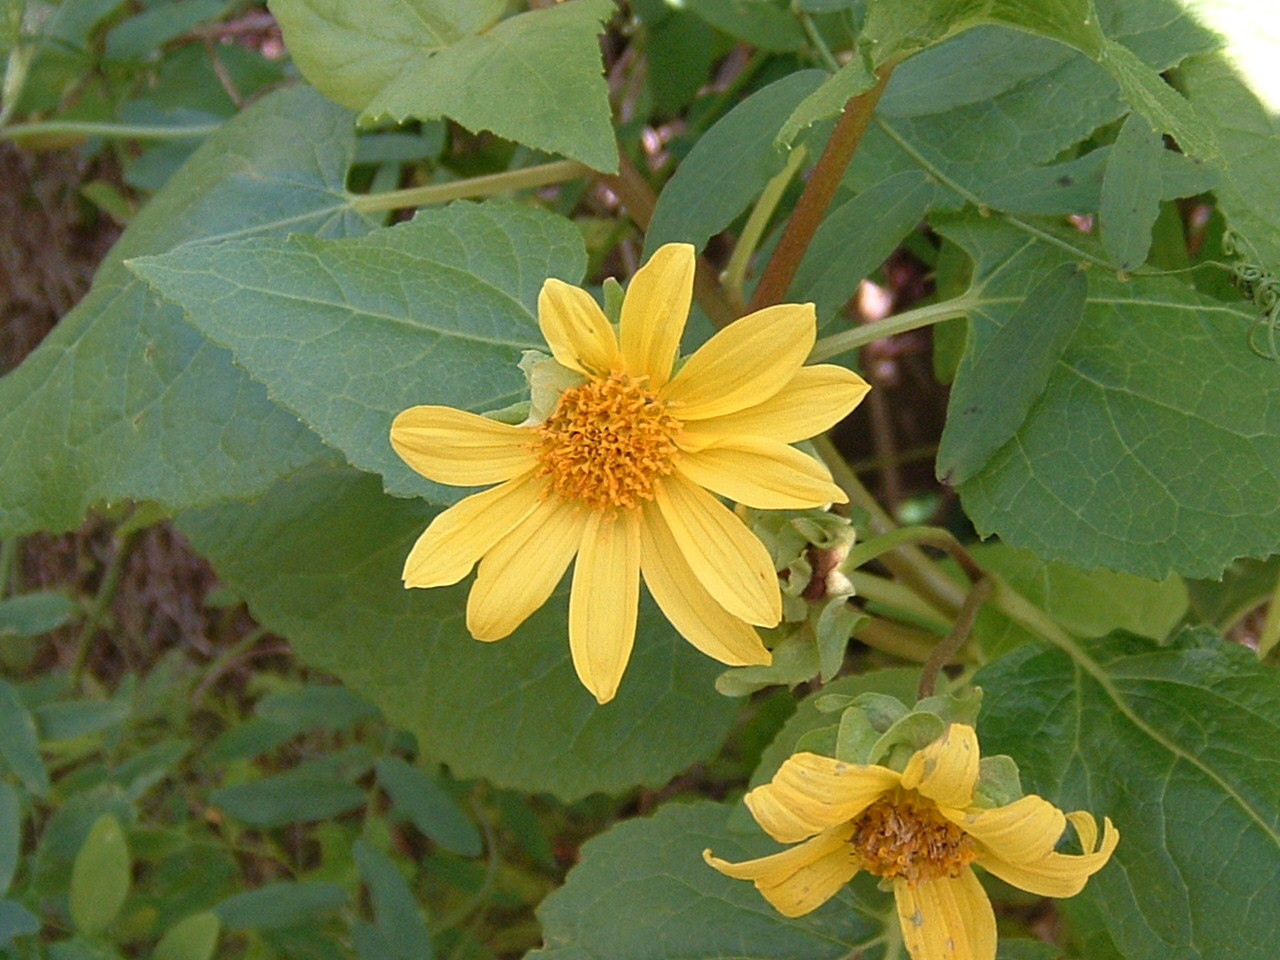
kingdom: Plantae
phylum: Tracheophyta
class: Magnoliopsida
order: Asterales
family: Asteraceae
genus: Venegasia
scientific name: Venegasia carpesioides
